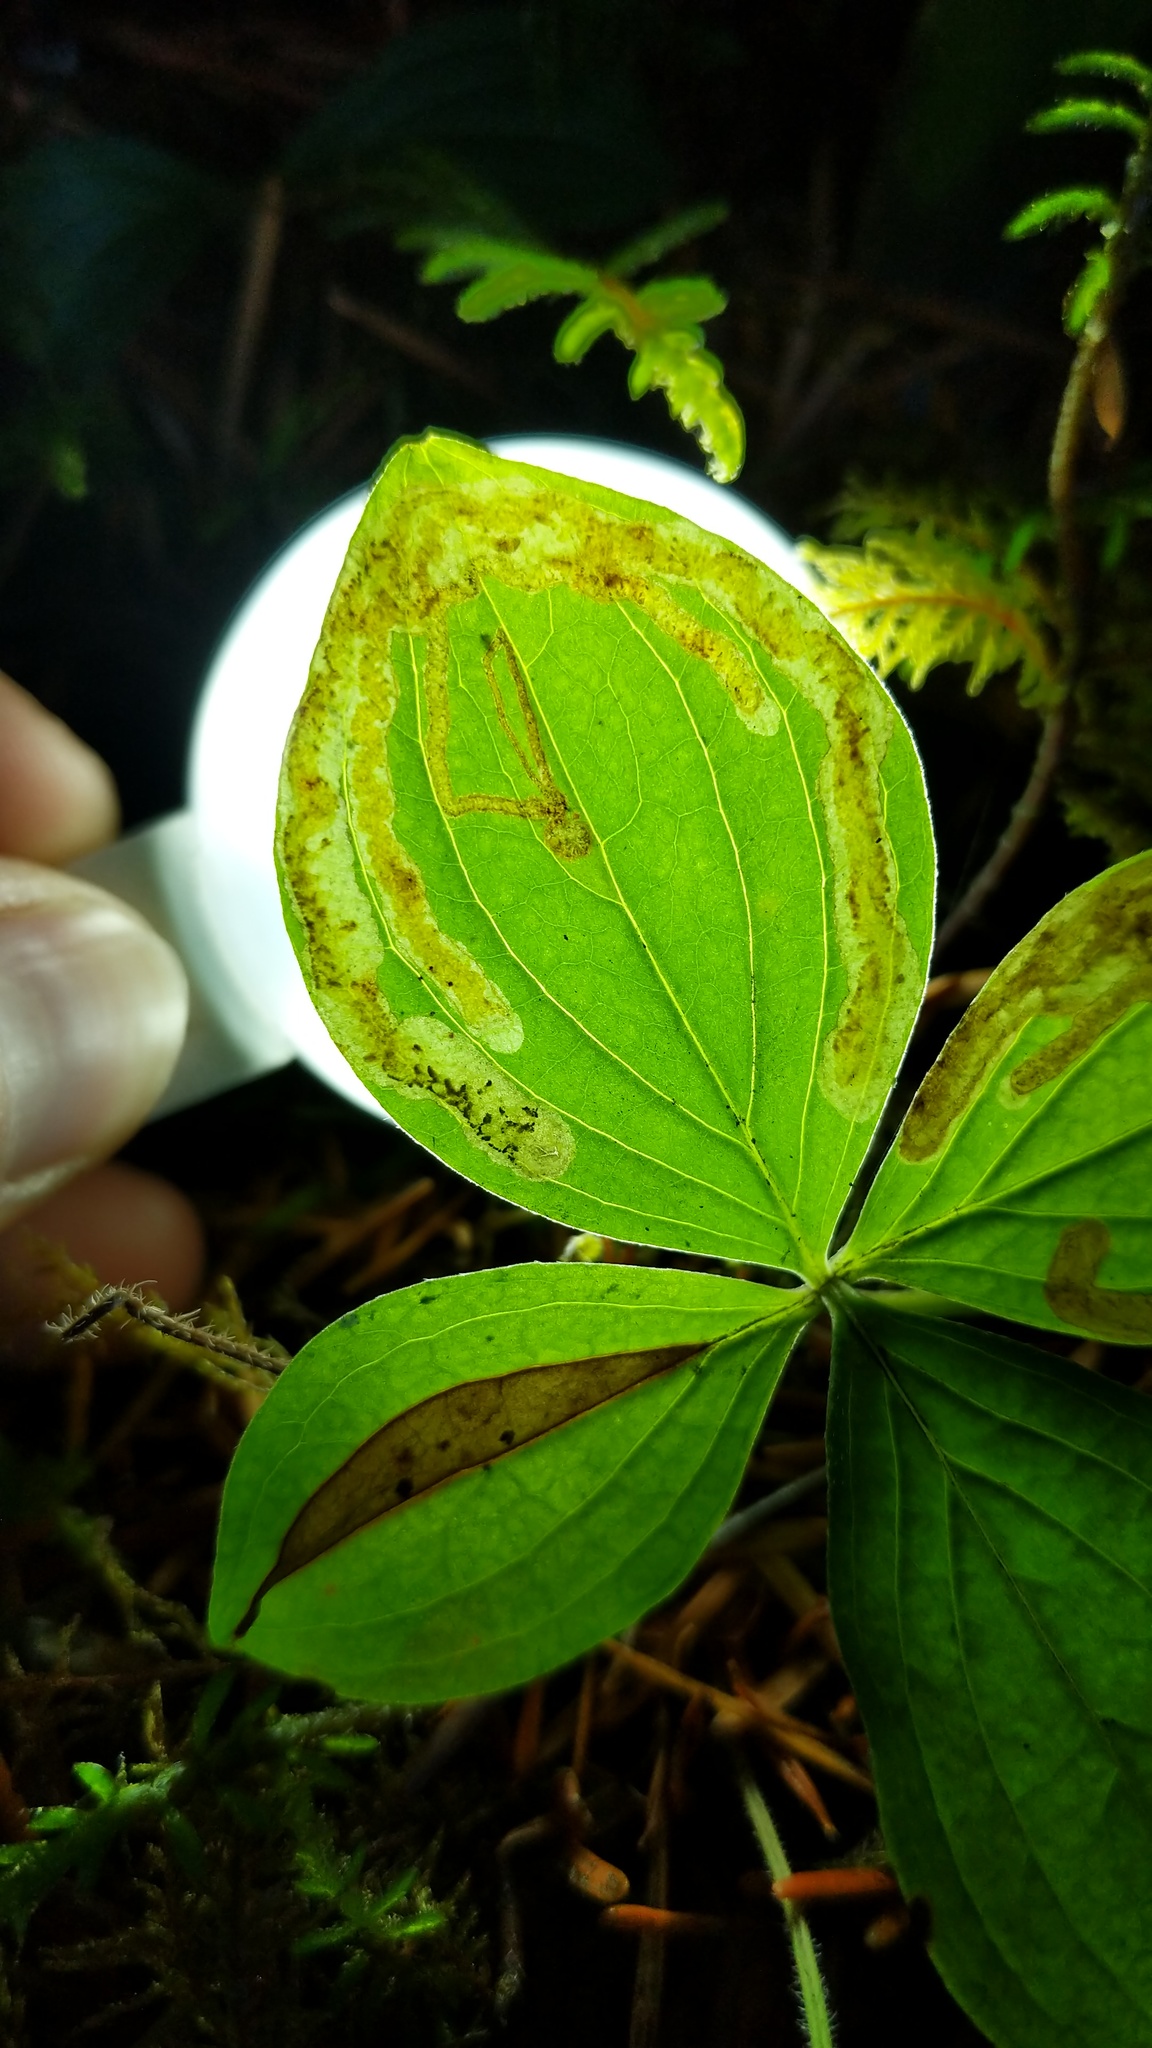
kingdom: Animalia
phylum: Arthropoda
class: Insecta
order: Diptera
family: Agromyzidae
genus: Phytomyza
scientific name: Phytomyza agromyzina
